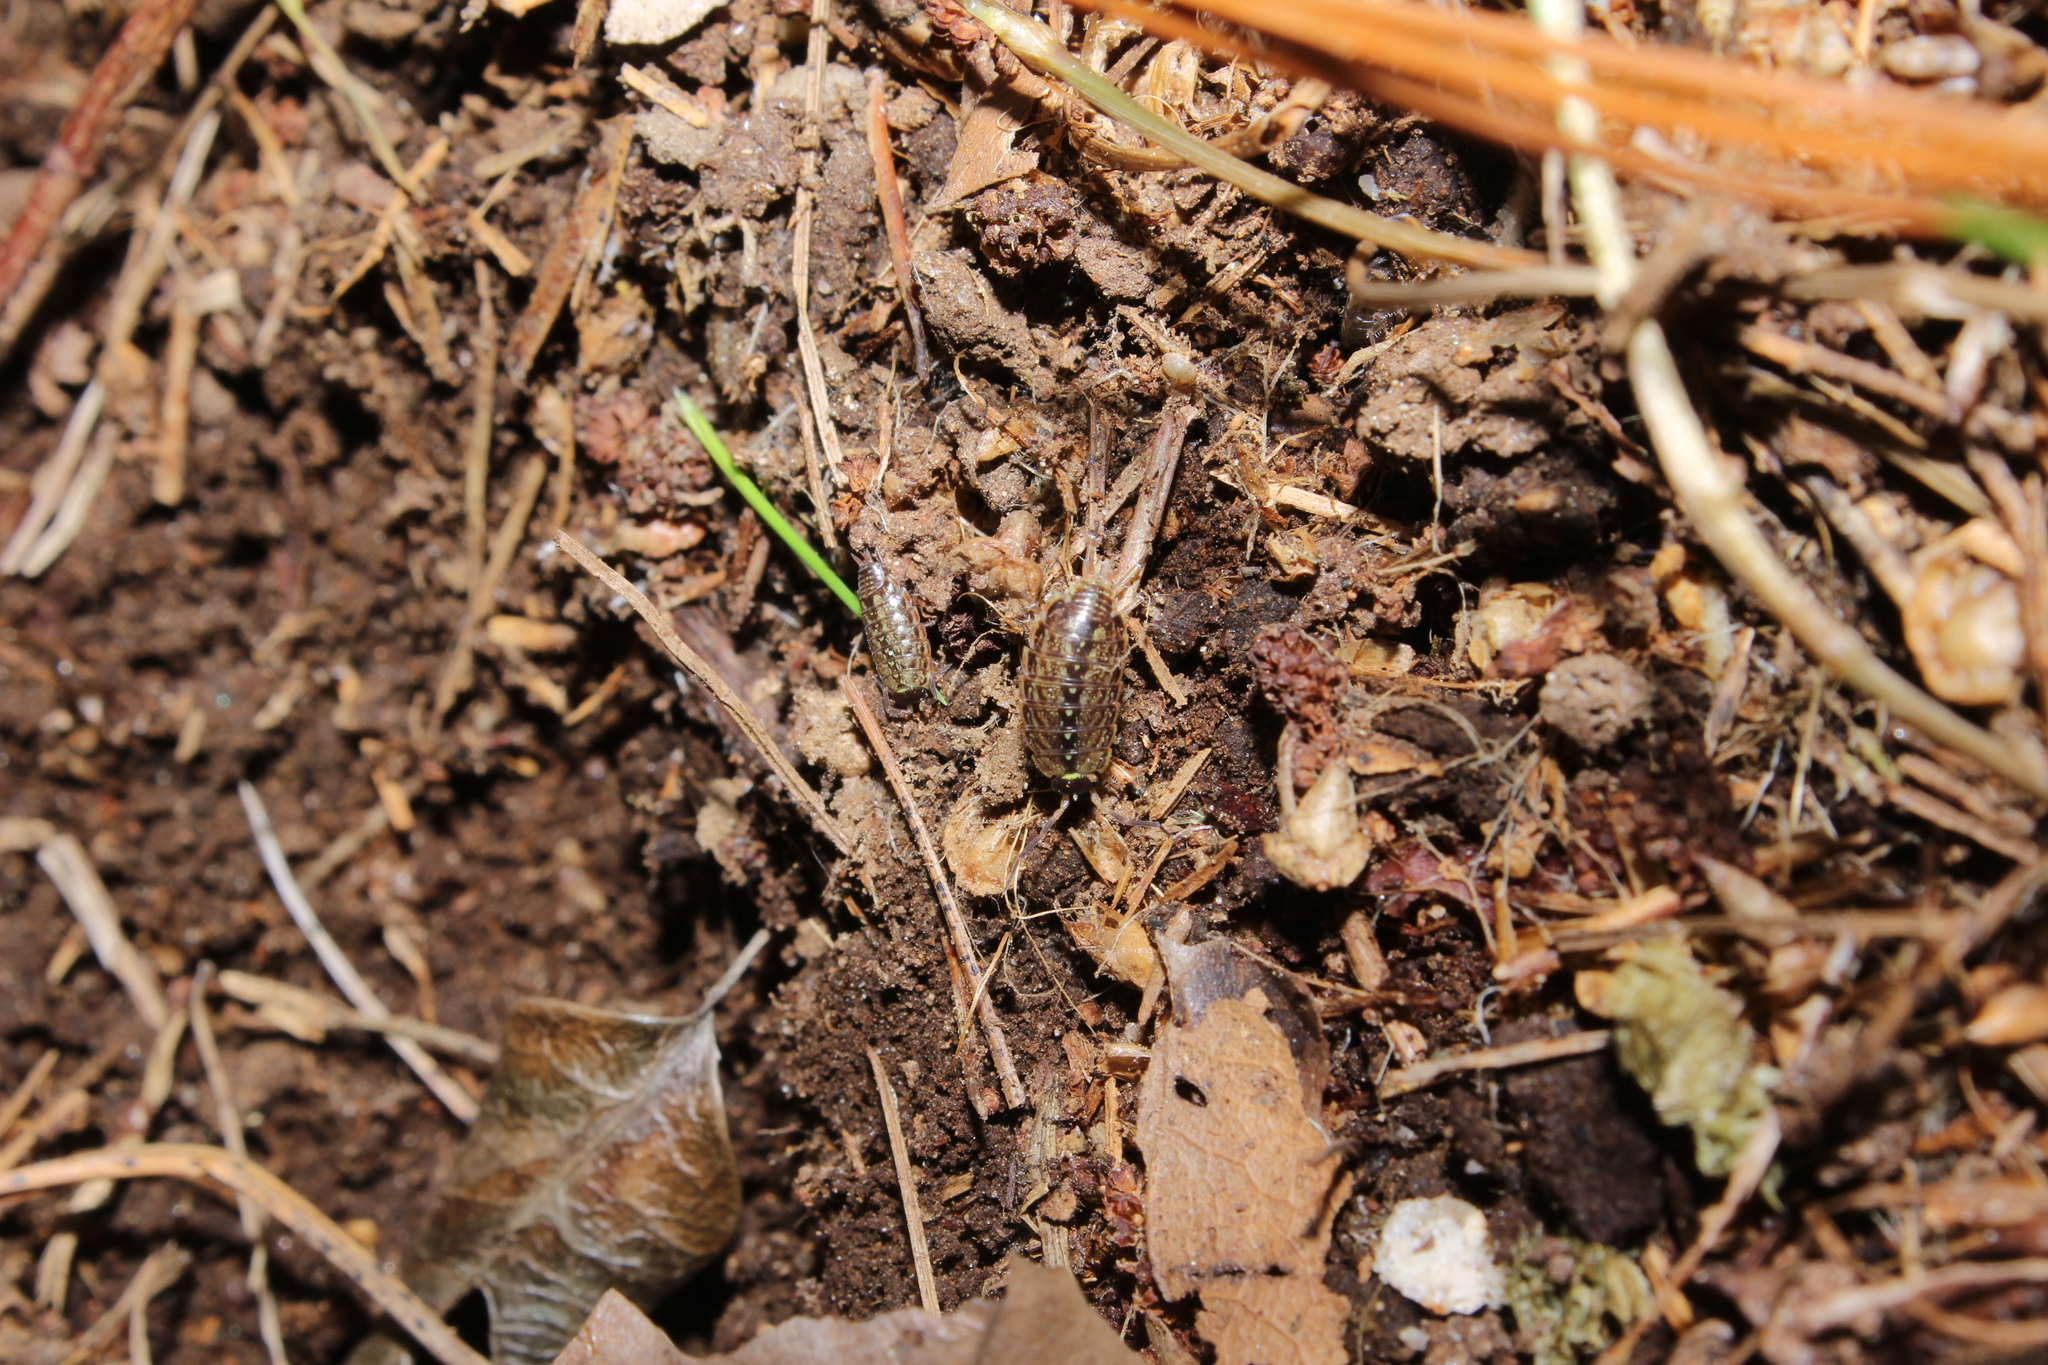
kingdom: Animalia
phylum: Arthropoda
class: Malacostraca
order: Isopoda
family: Philosciidae
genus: Philoscia
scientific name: Philoscia muscorum
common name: Common striped woodlouse
